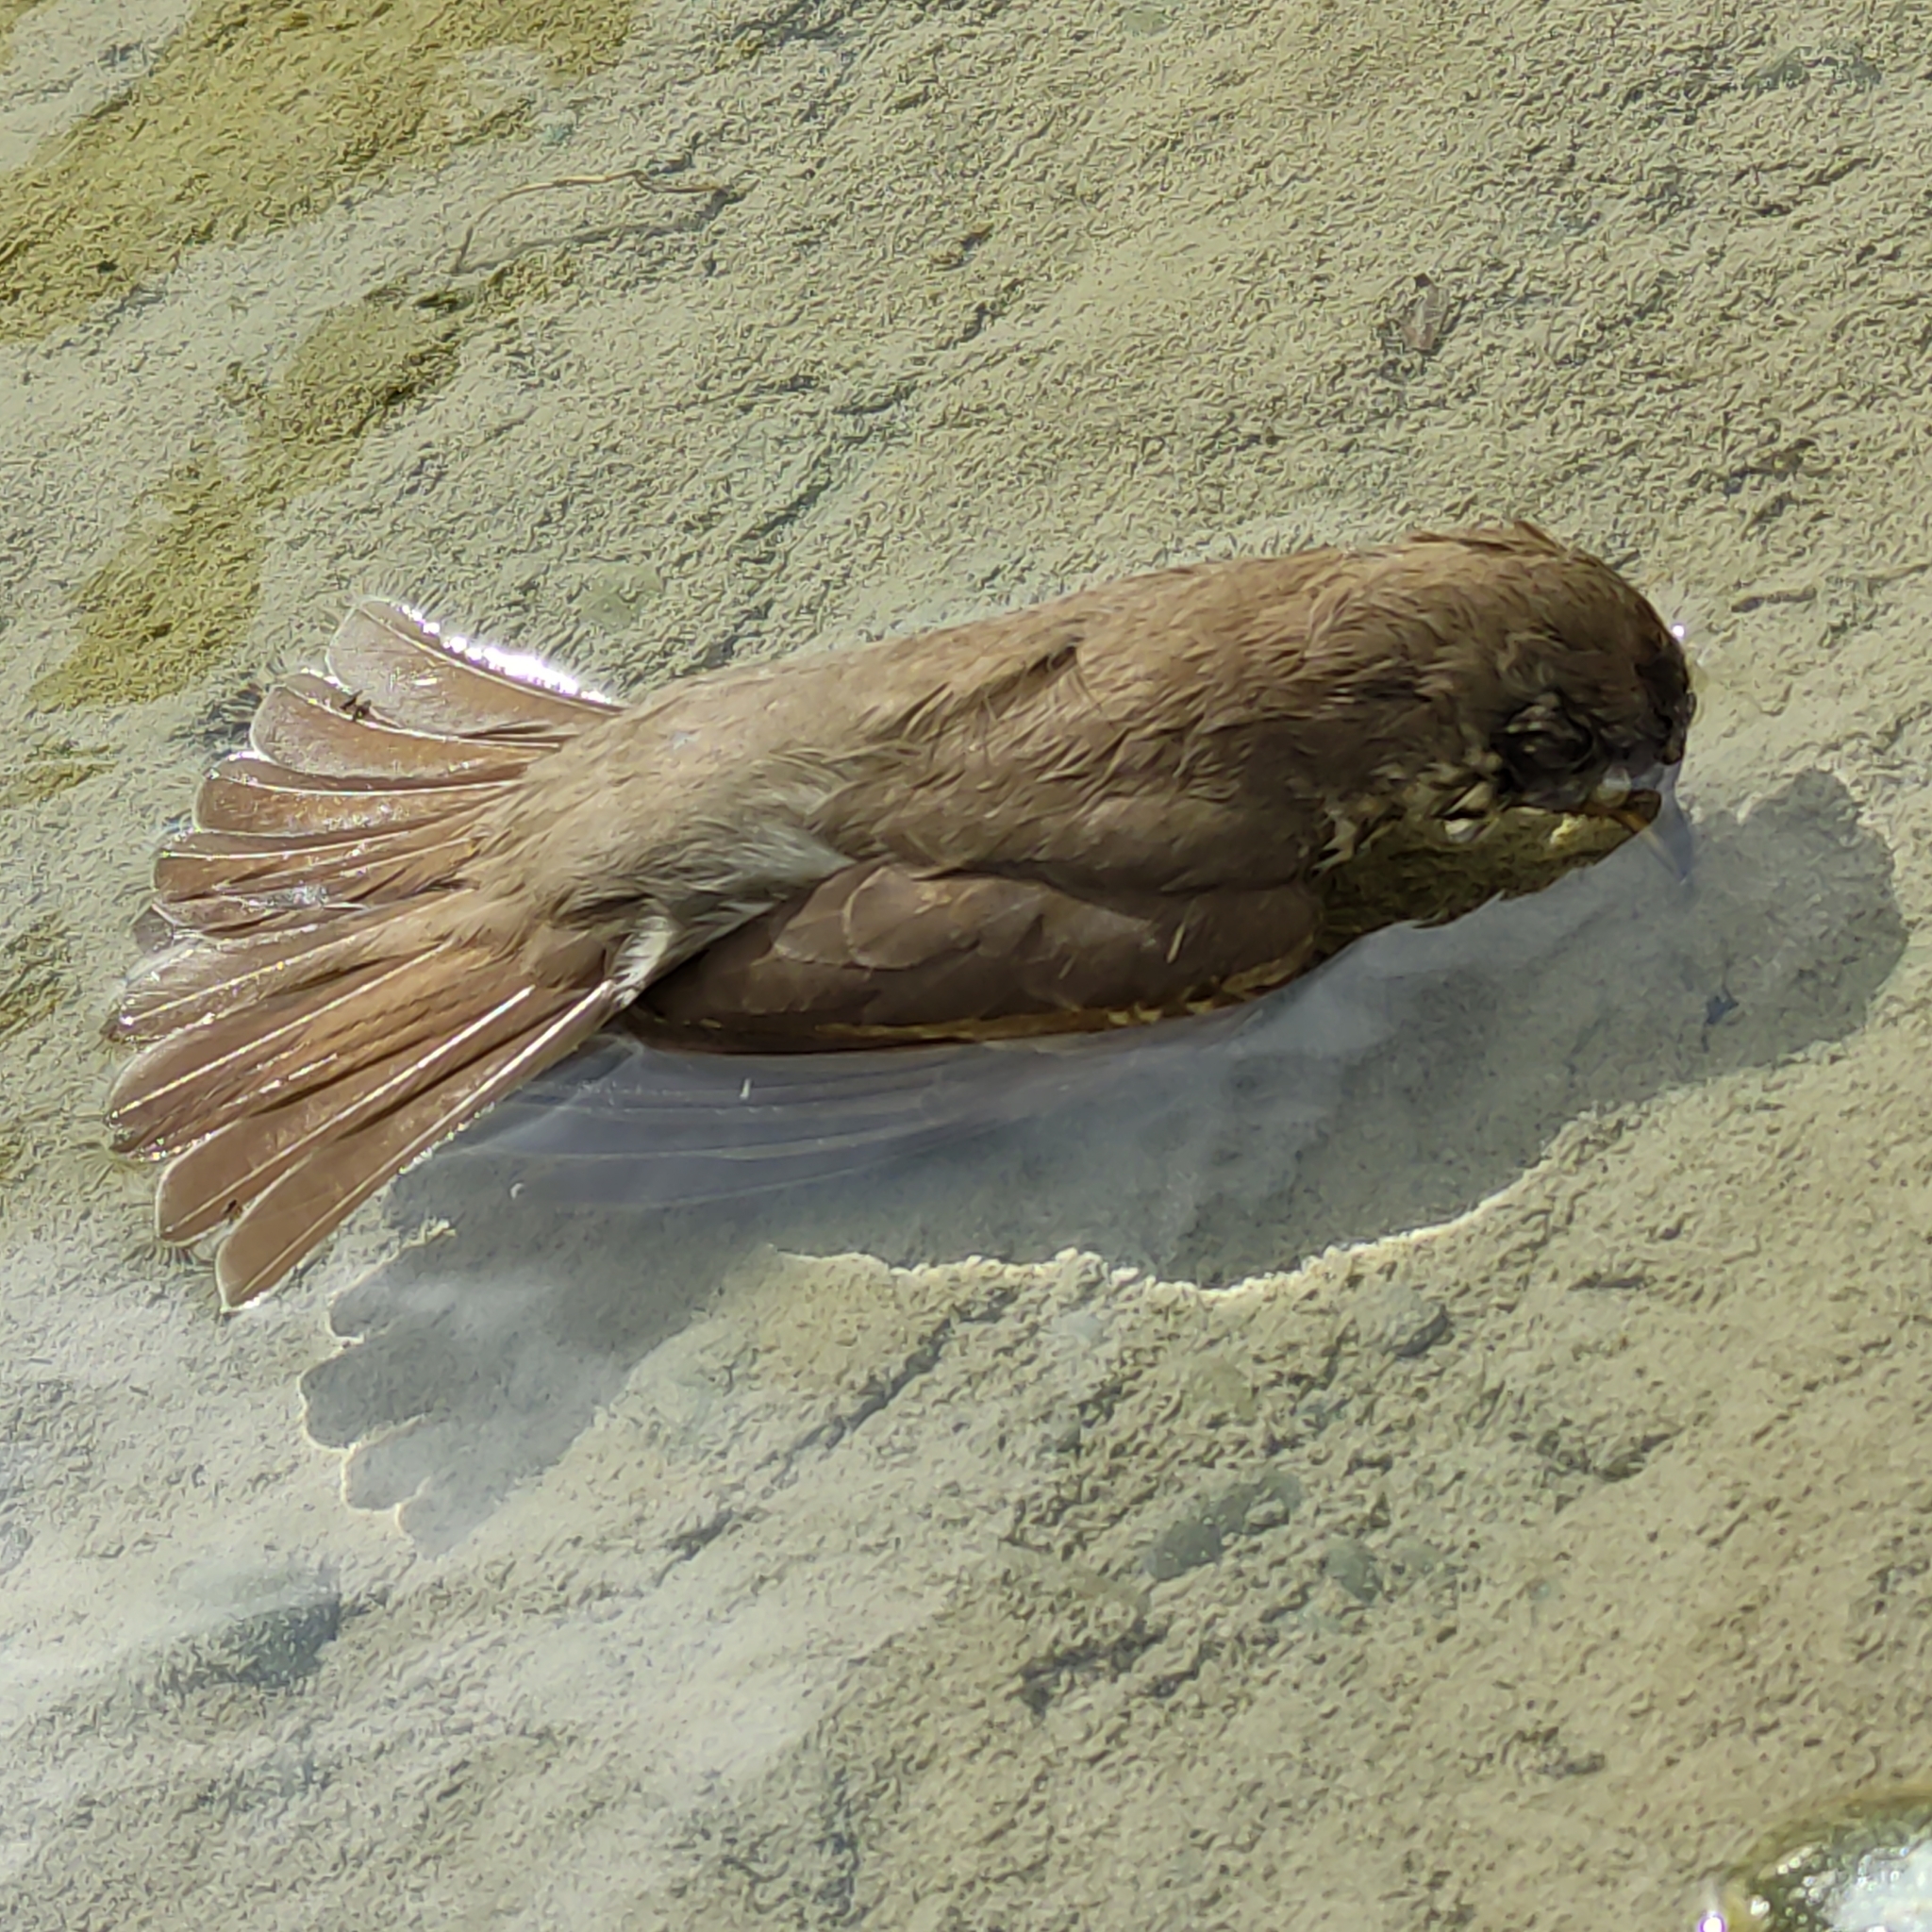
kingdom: Animalia
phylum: Chordata
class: Aves
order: Passeriformes
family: Turdidae
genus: Turdus
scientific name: Turdus philomelos
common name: Song thrush
